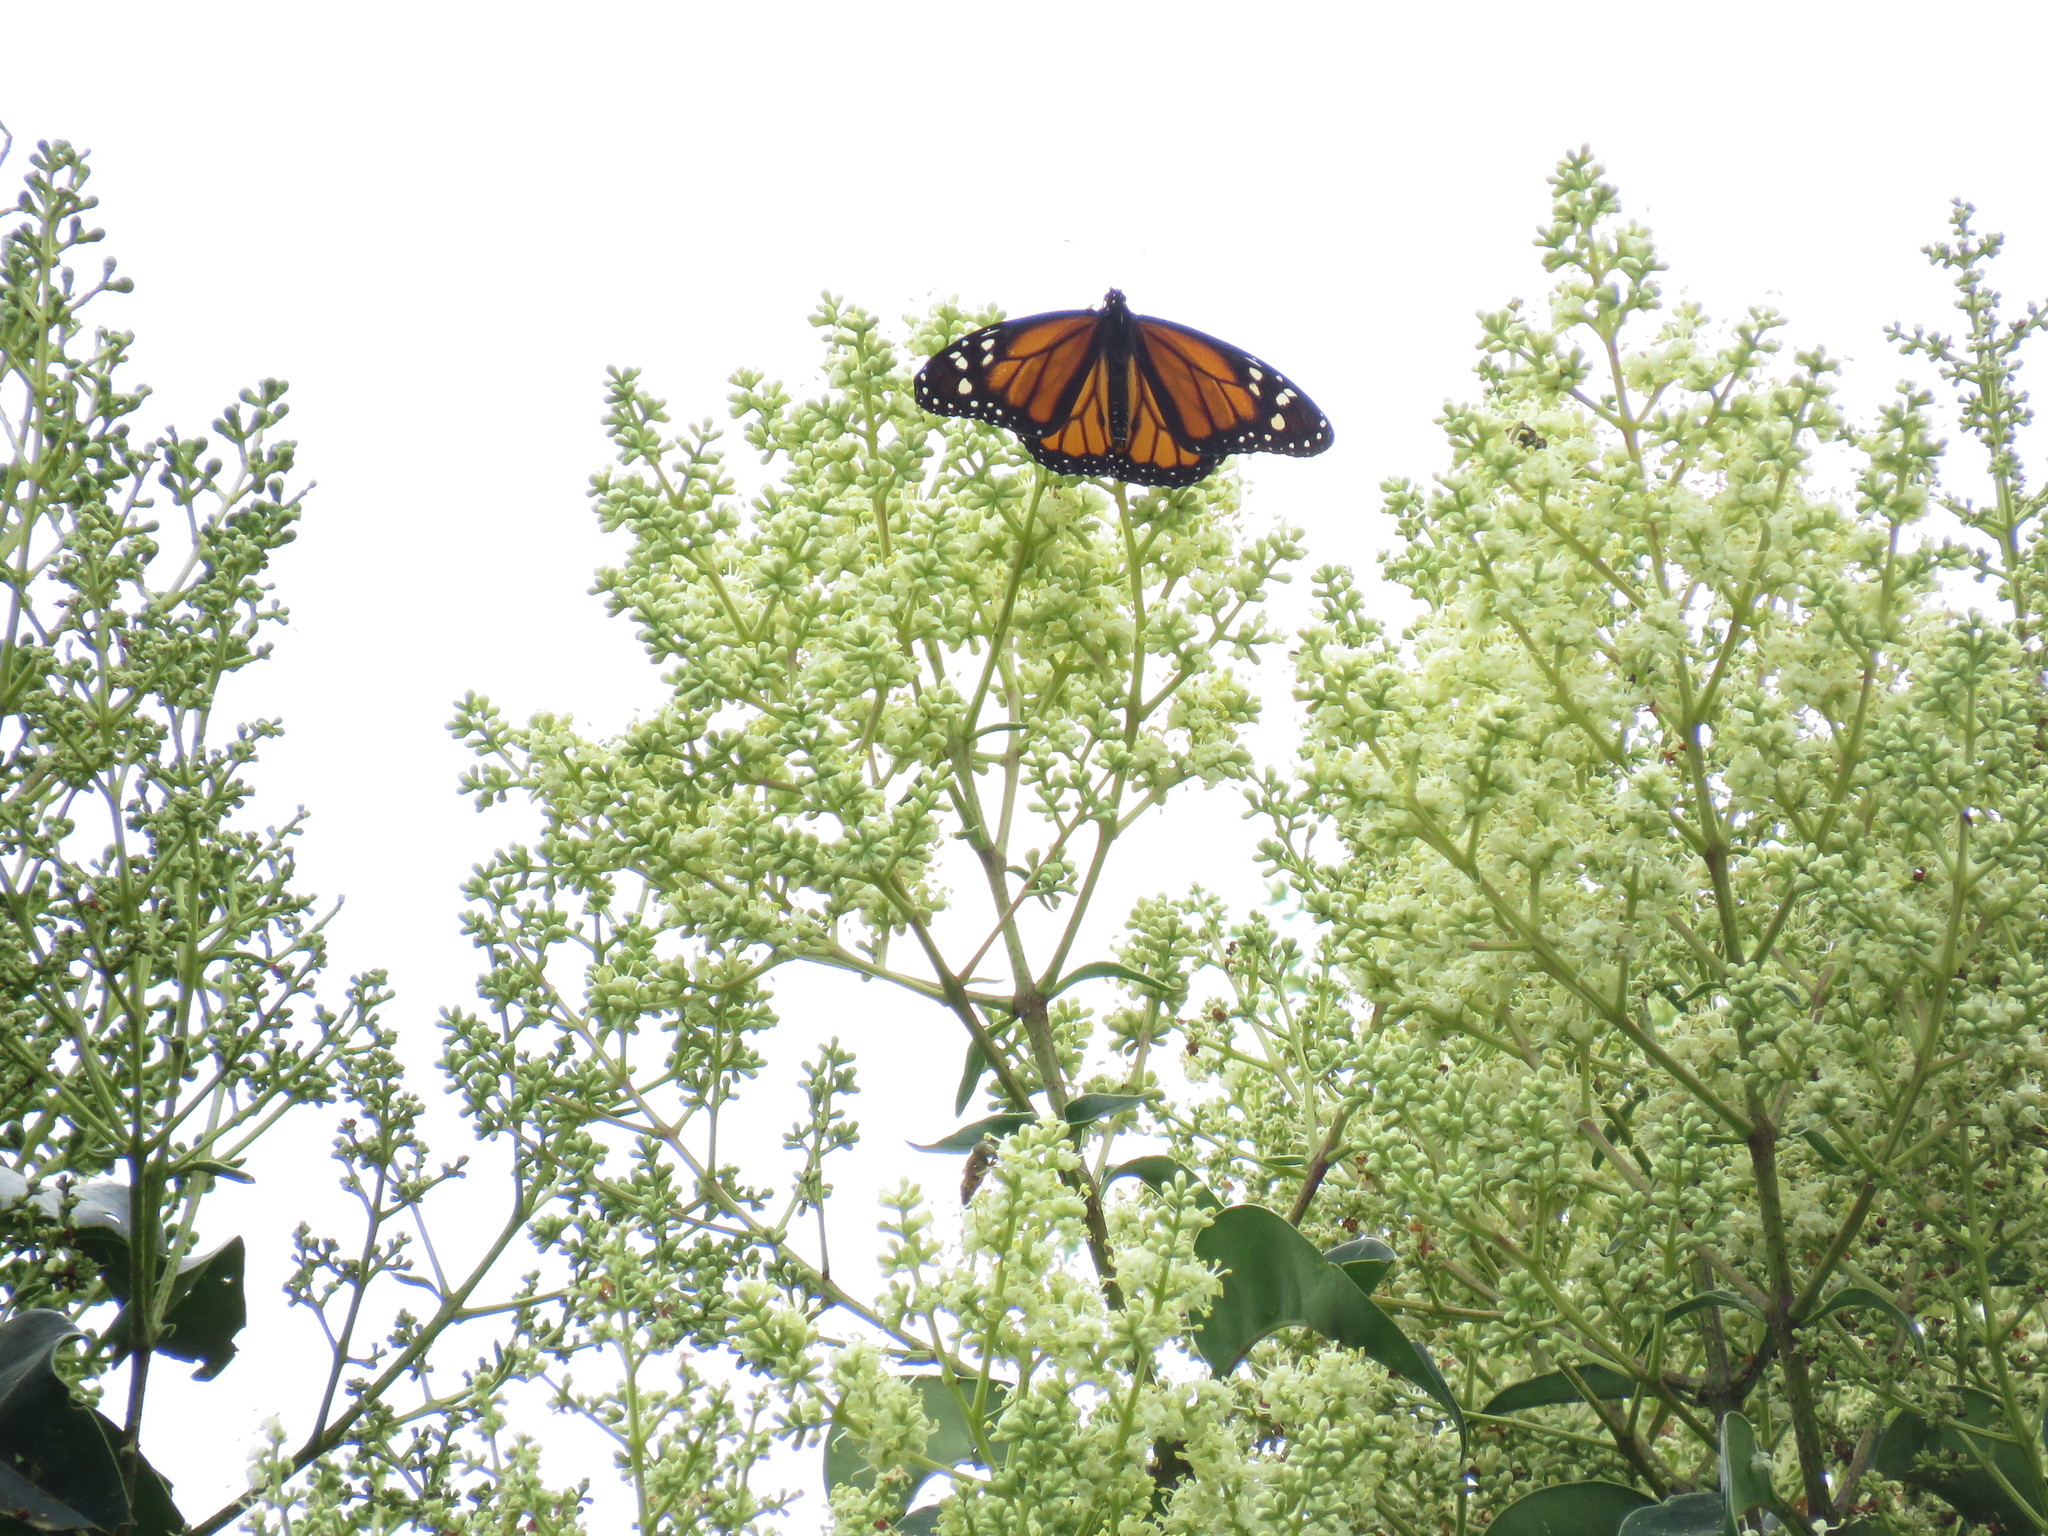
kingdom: Plantae
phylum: Tracheophyta
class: Magnoliopsida
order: Lamiales
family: Oleaceae
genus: Ligustrum
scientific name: Ligustrum lucidum
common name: Glossy privet
